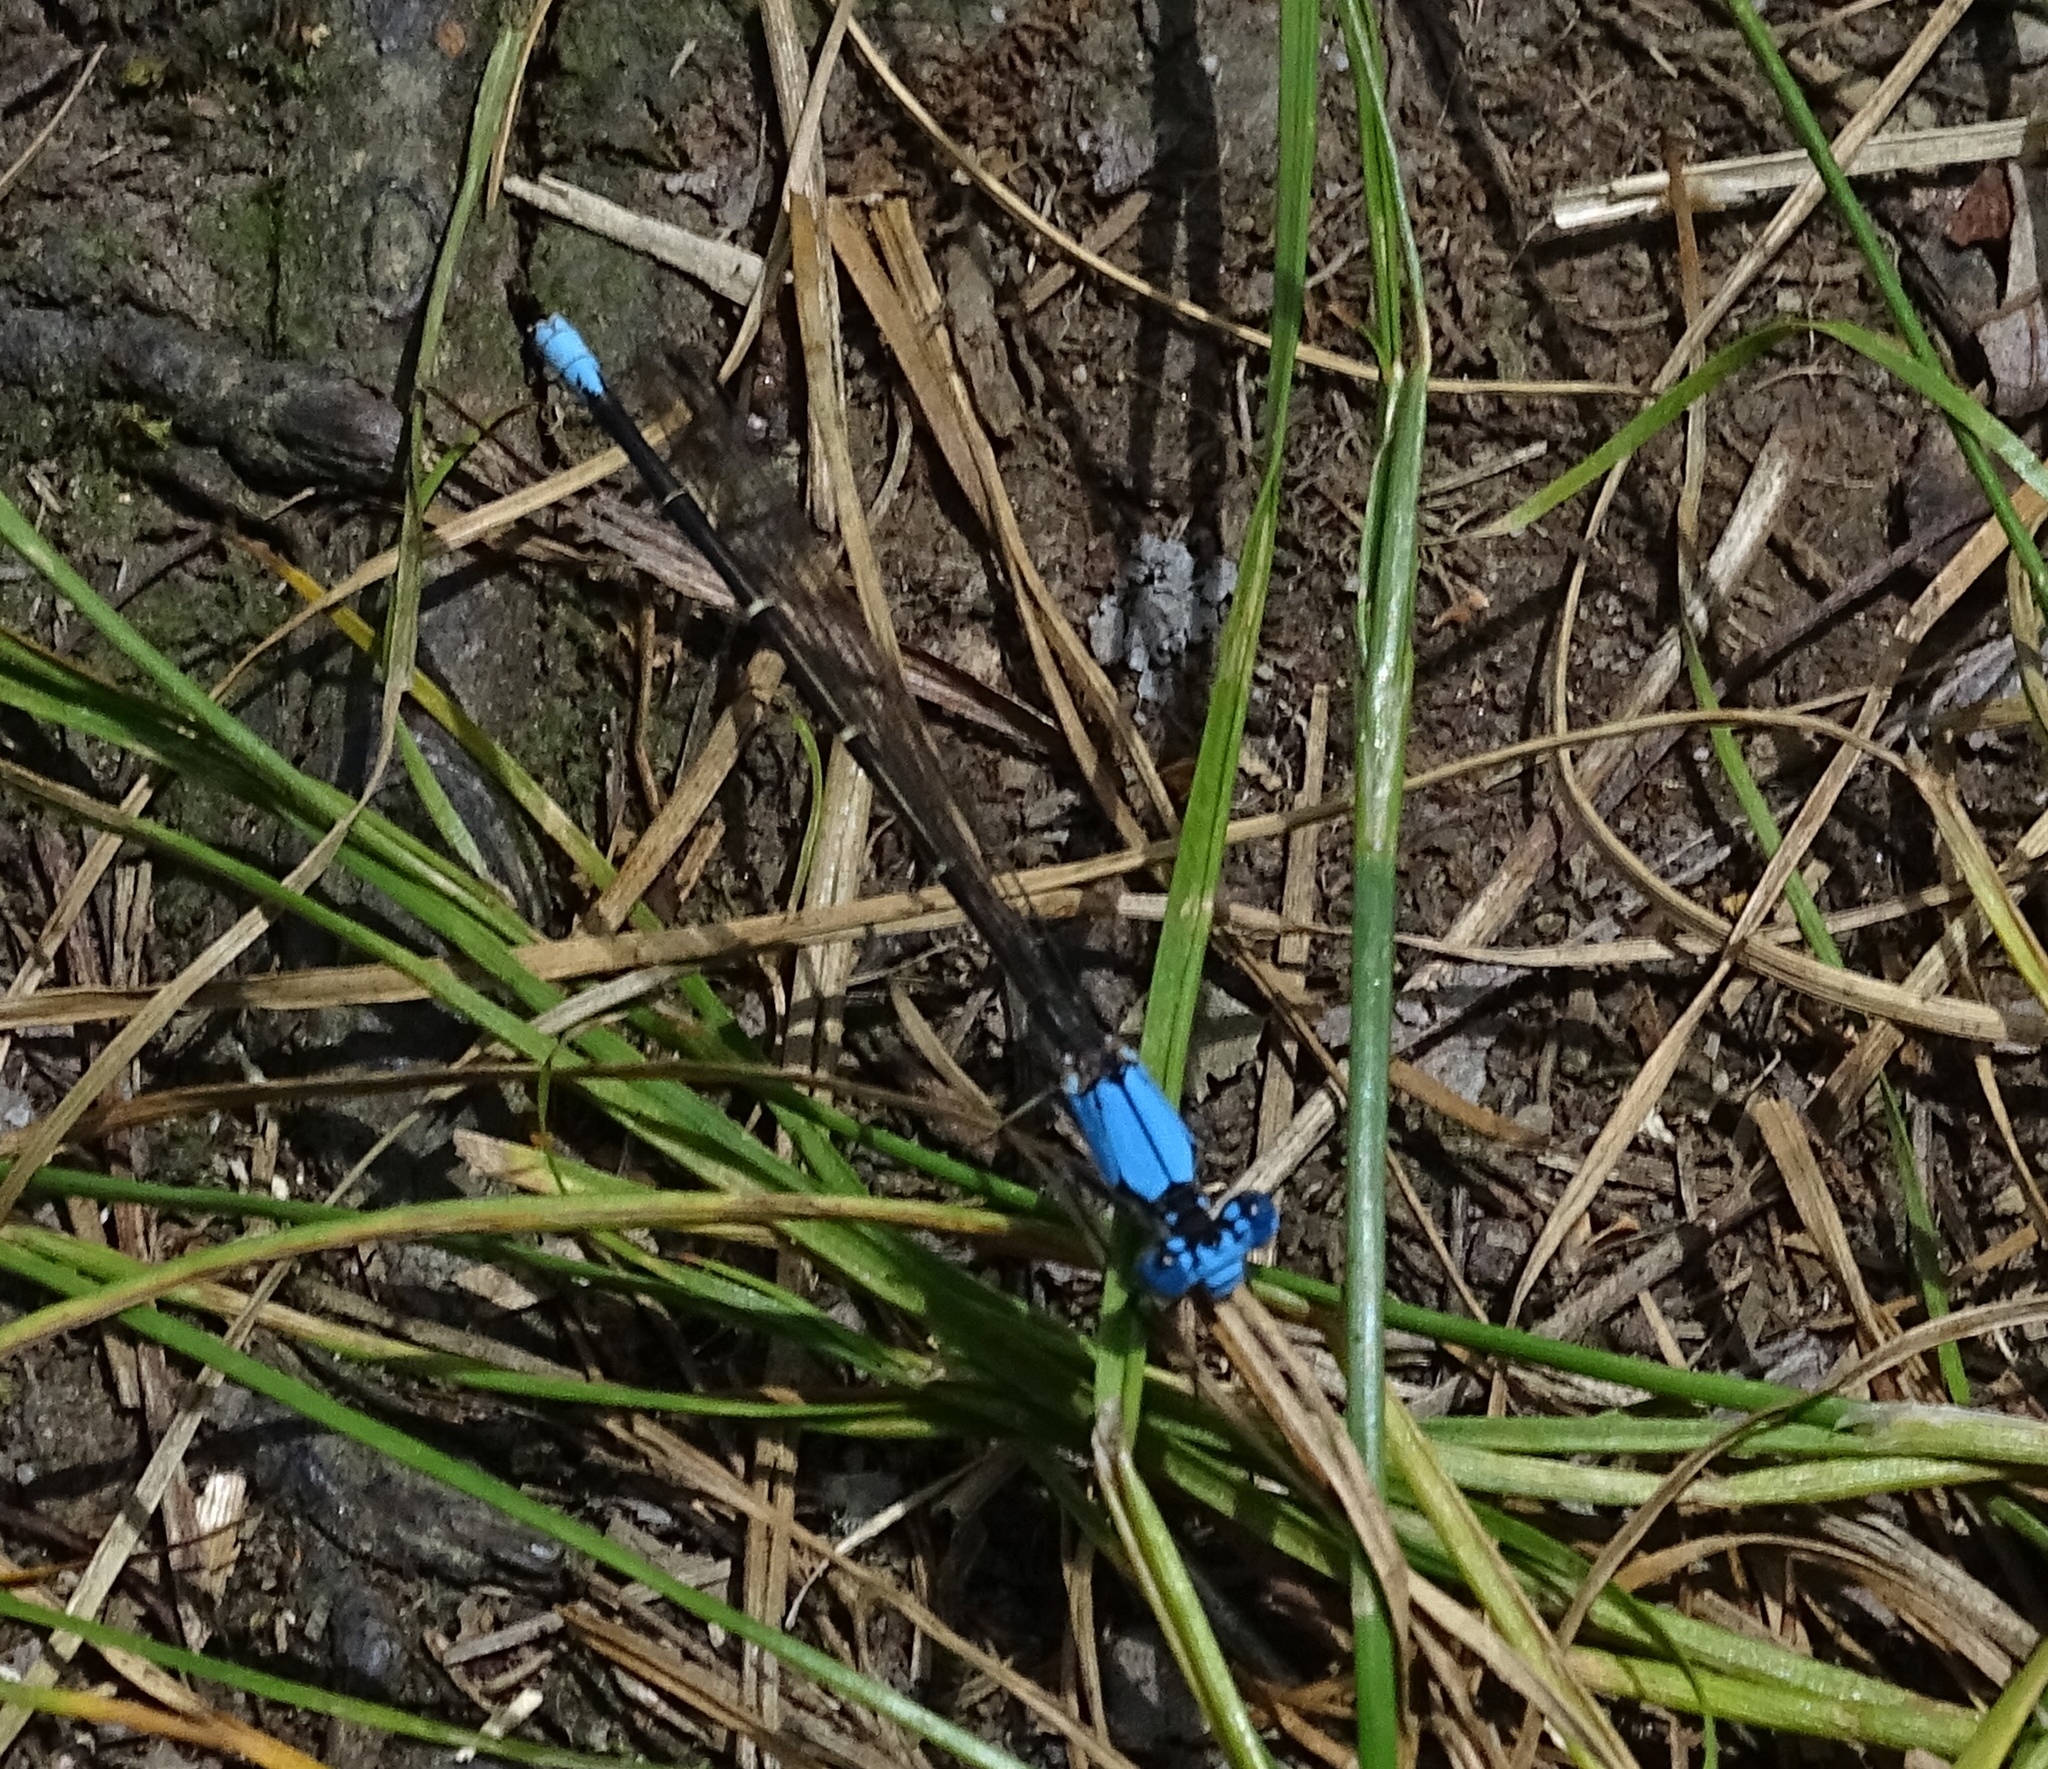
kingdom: Animalia
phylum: Arthropoda
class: Insecta
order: Odonata
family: Coenagrionidae
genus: Argia
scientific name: Argia apicalis
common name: Blue-fronted dancer
